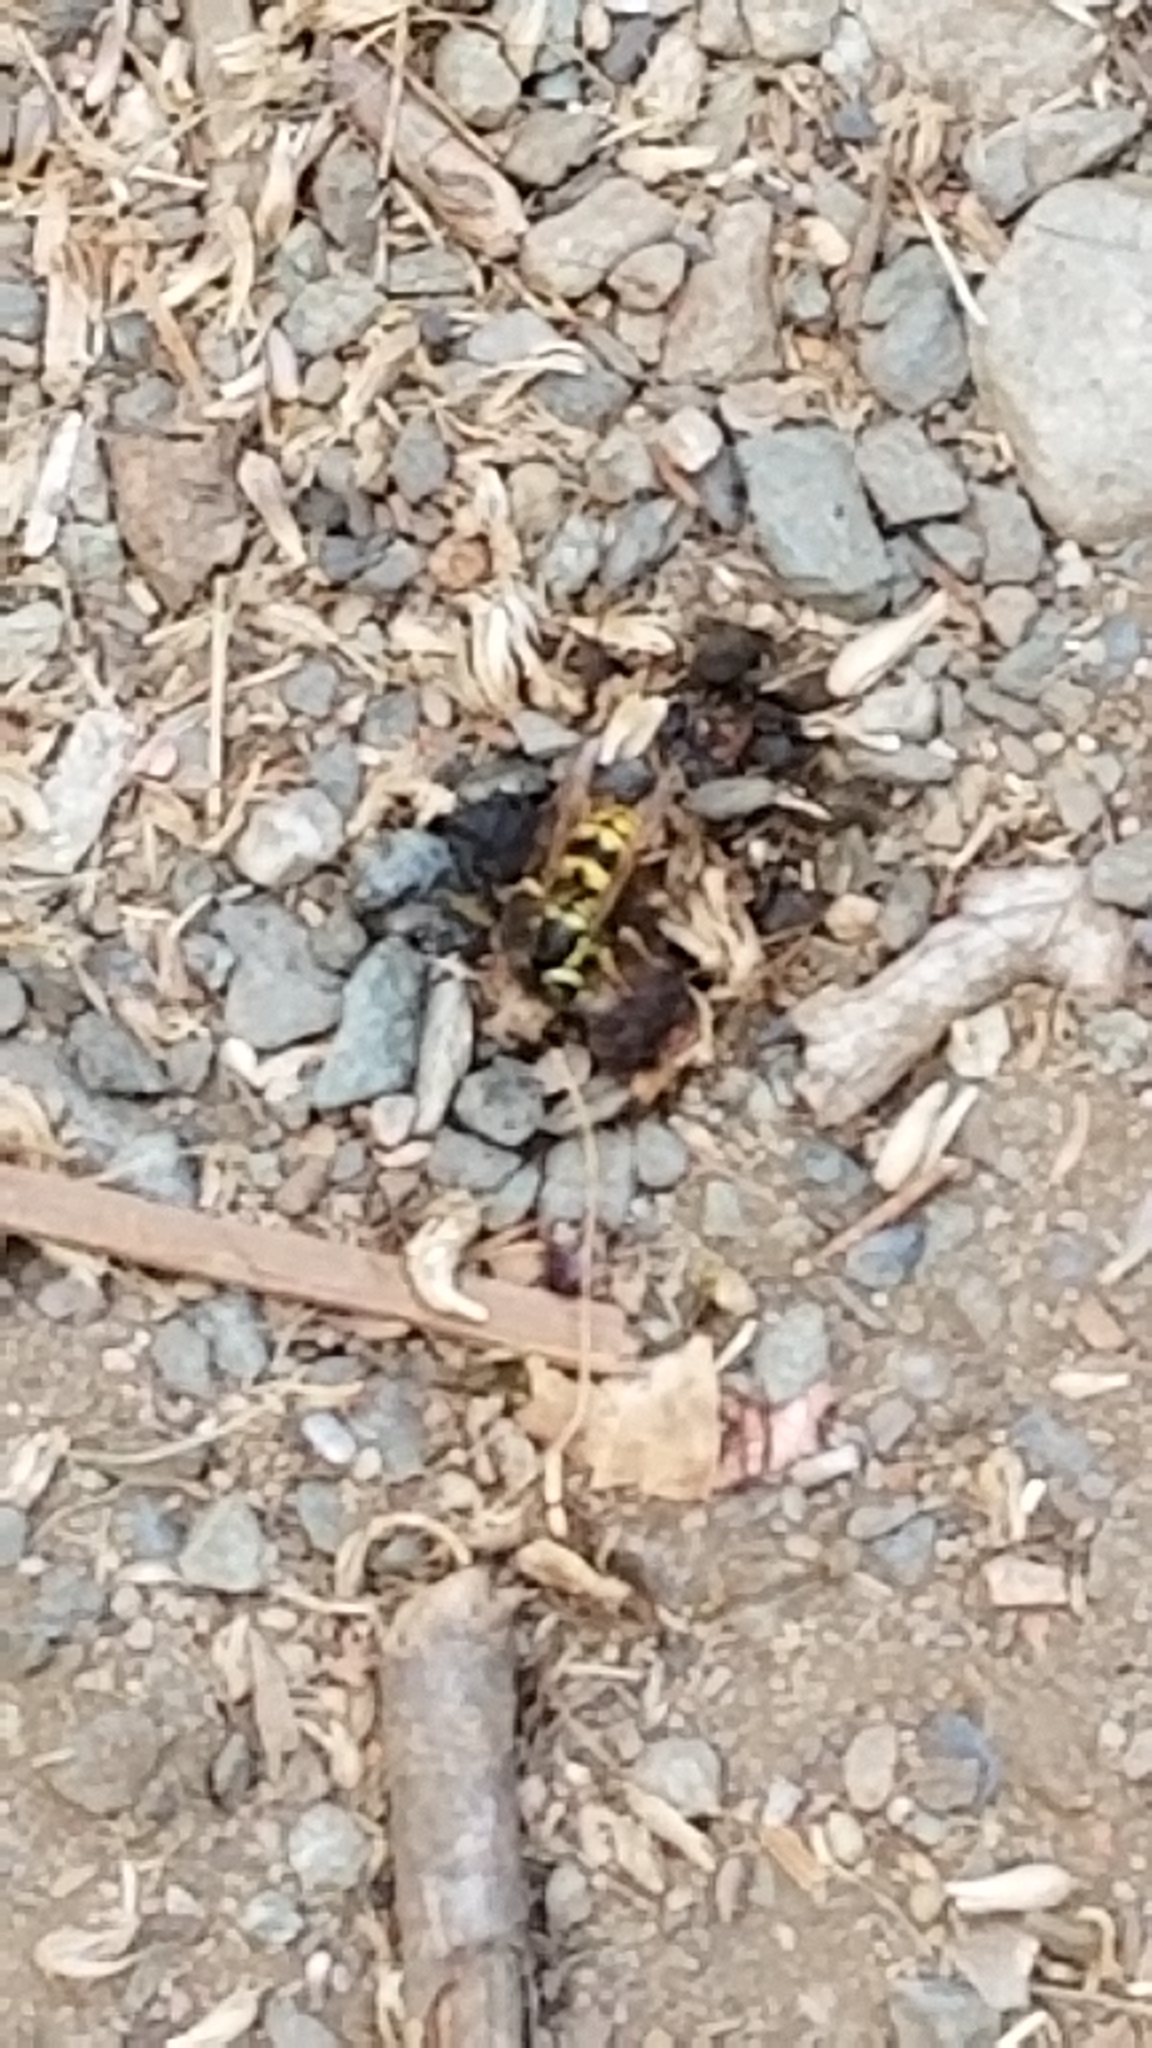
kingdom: Animalia
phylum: Arthropoda
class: Insecta
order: Hymenoptera
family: Vespidae
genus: Vespula
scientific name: Vespula pensylvanica
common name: Western yellowjacket
